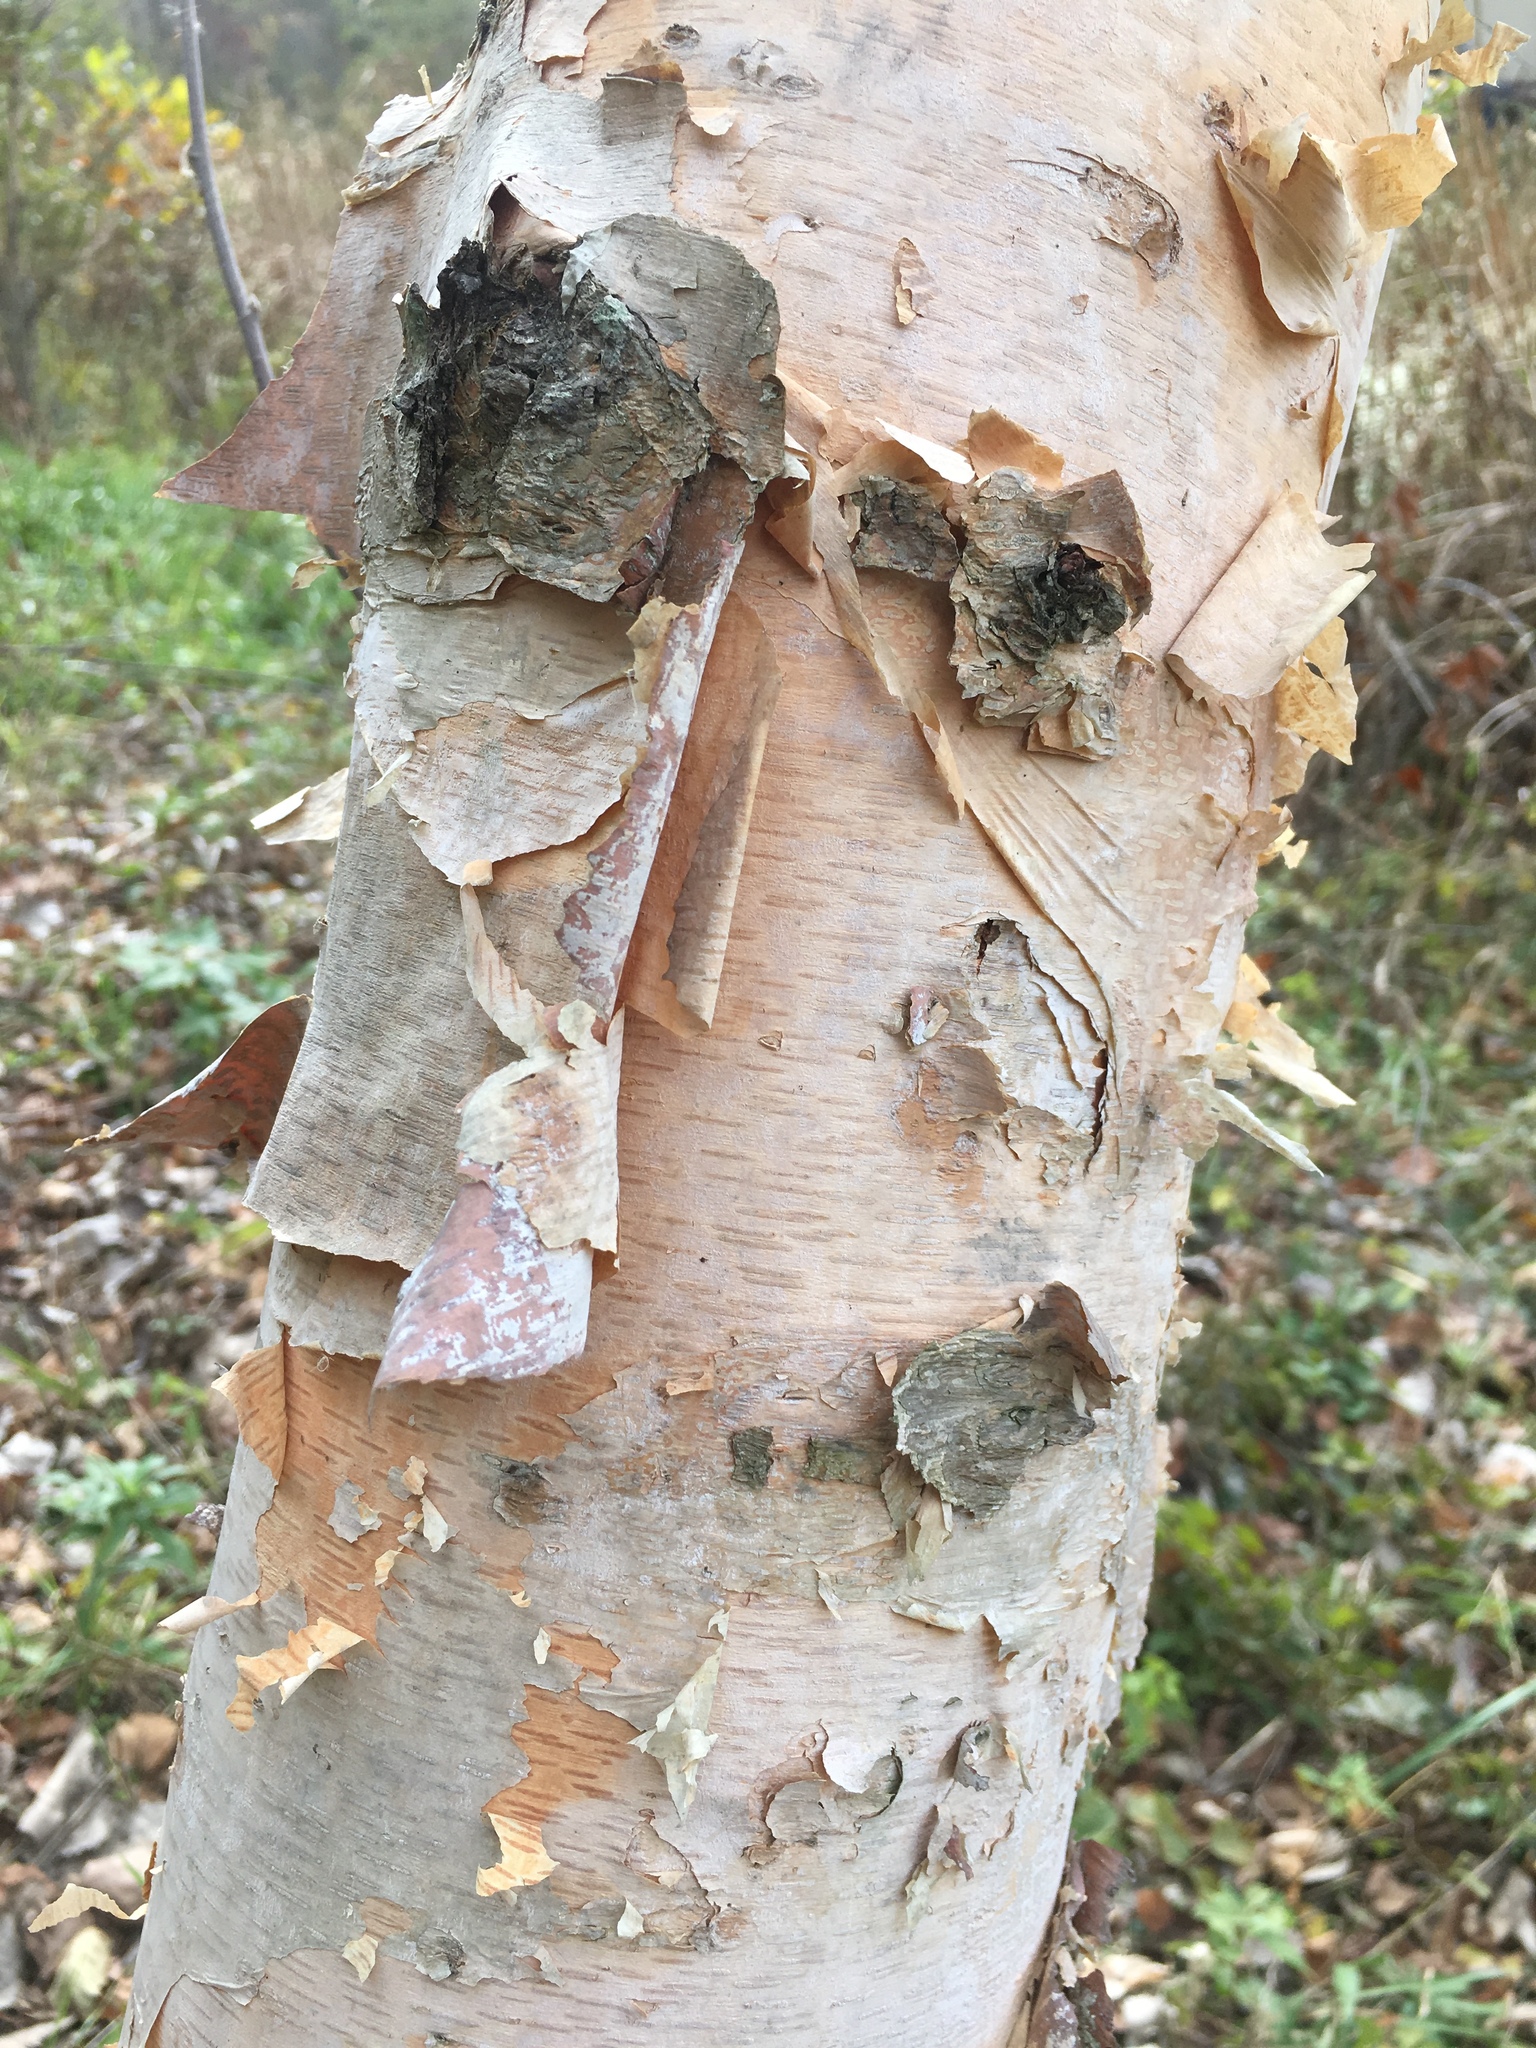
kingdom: Plantae
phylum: Tracheophyta
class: Magnoliopsida
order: Fagales
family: Betulaceae
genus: Betula
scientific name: Betula nigra
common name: Black birch
